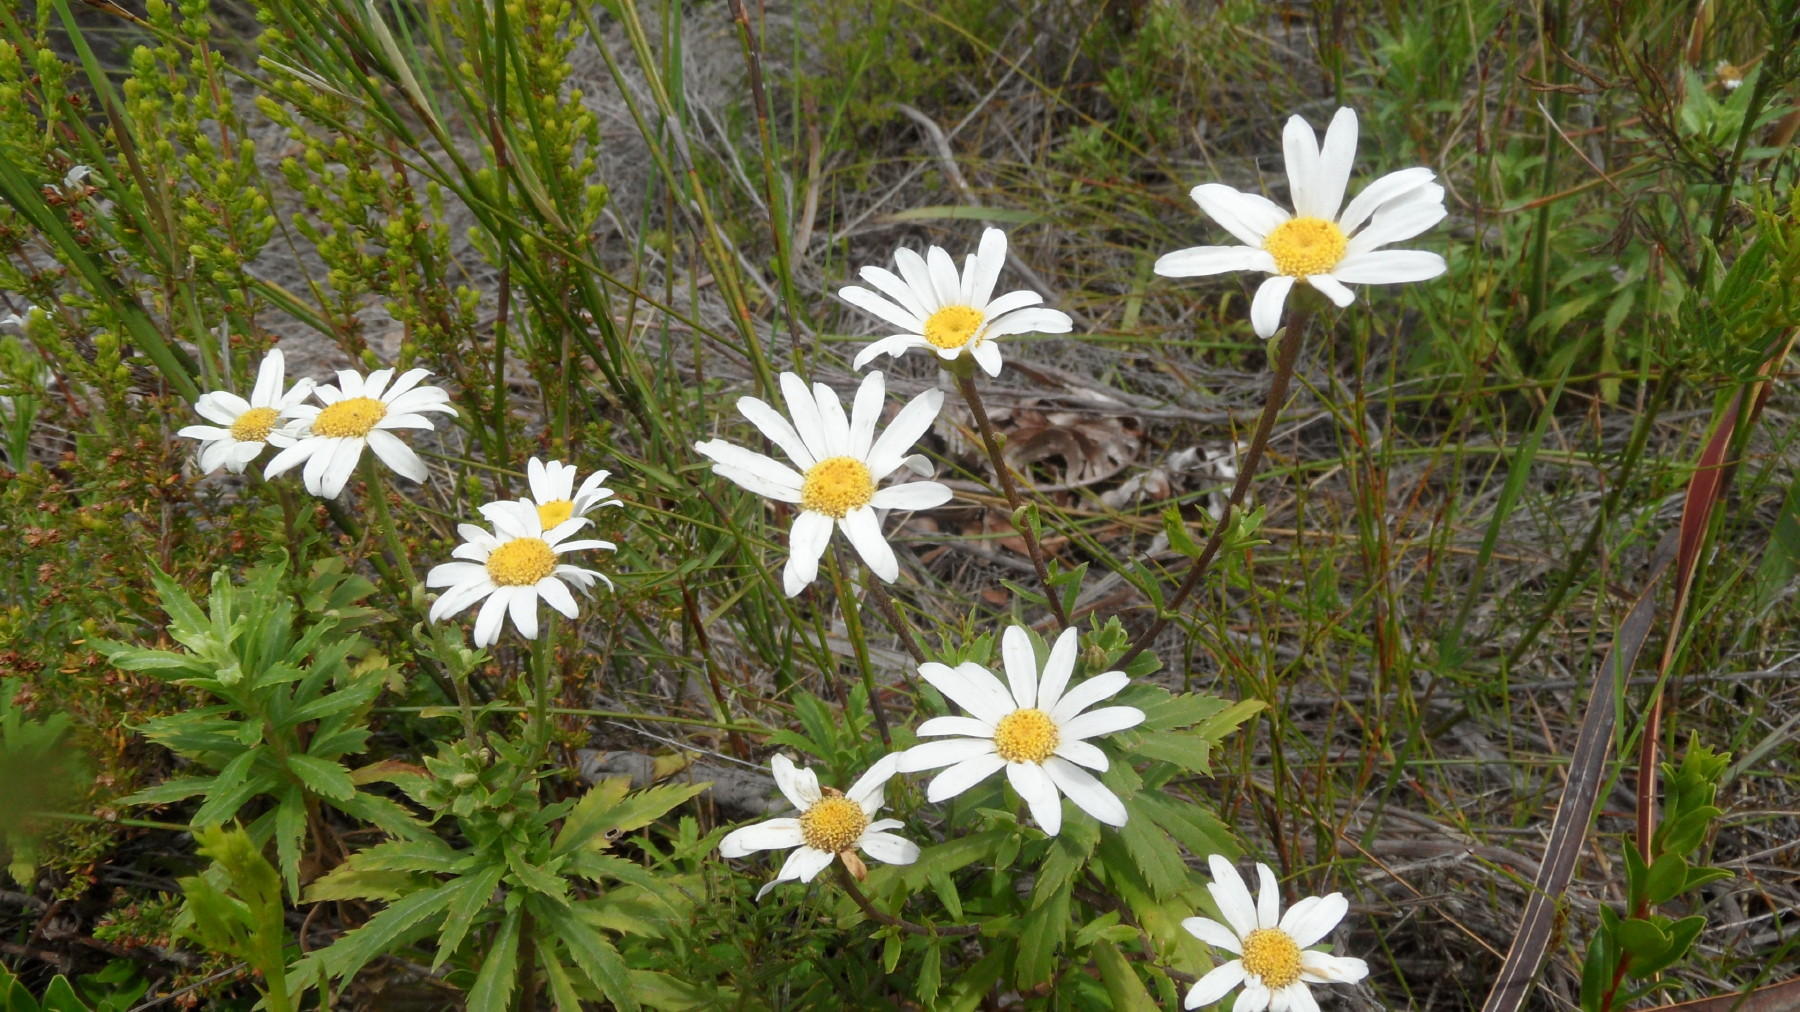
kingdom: Plantae
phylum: Tracheophyta
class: Magnoliopsida
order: Asterales
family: Asteraceae
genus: Osmitopsis
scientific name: Osmitopsis osmitoides
